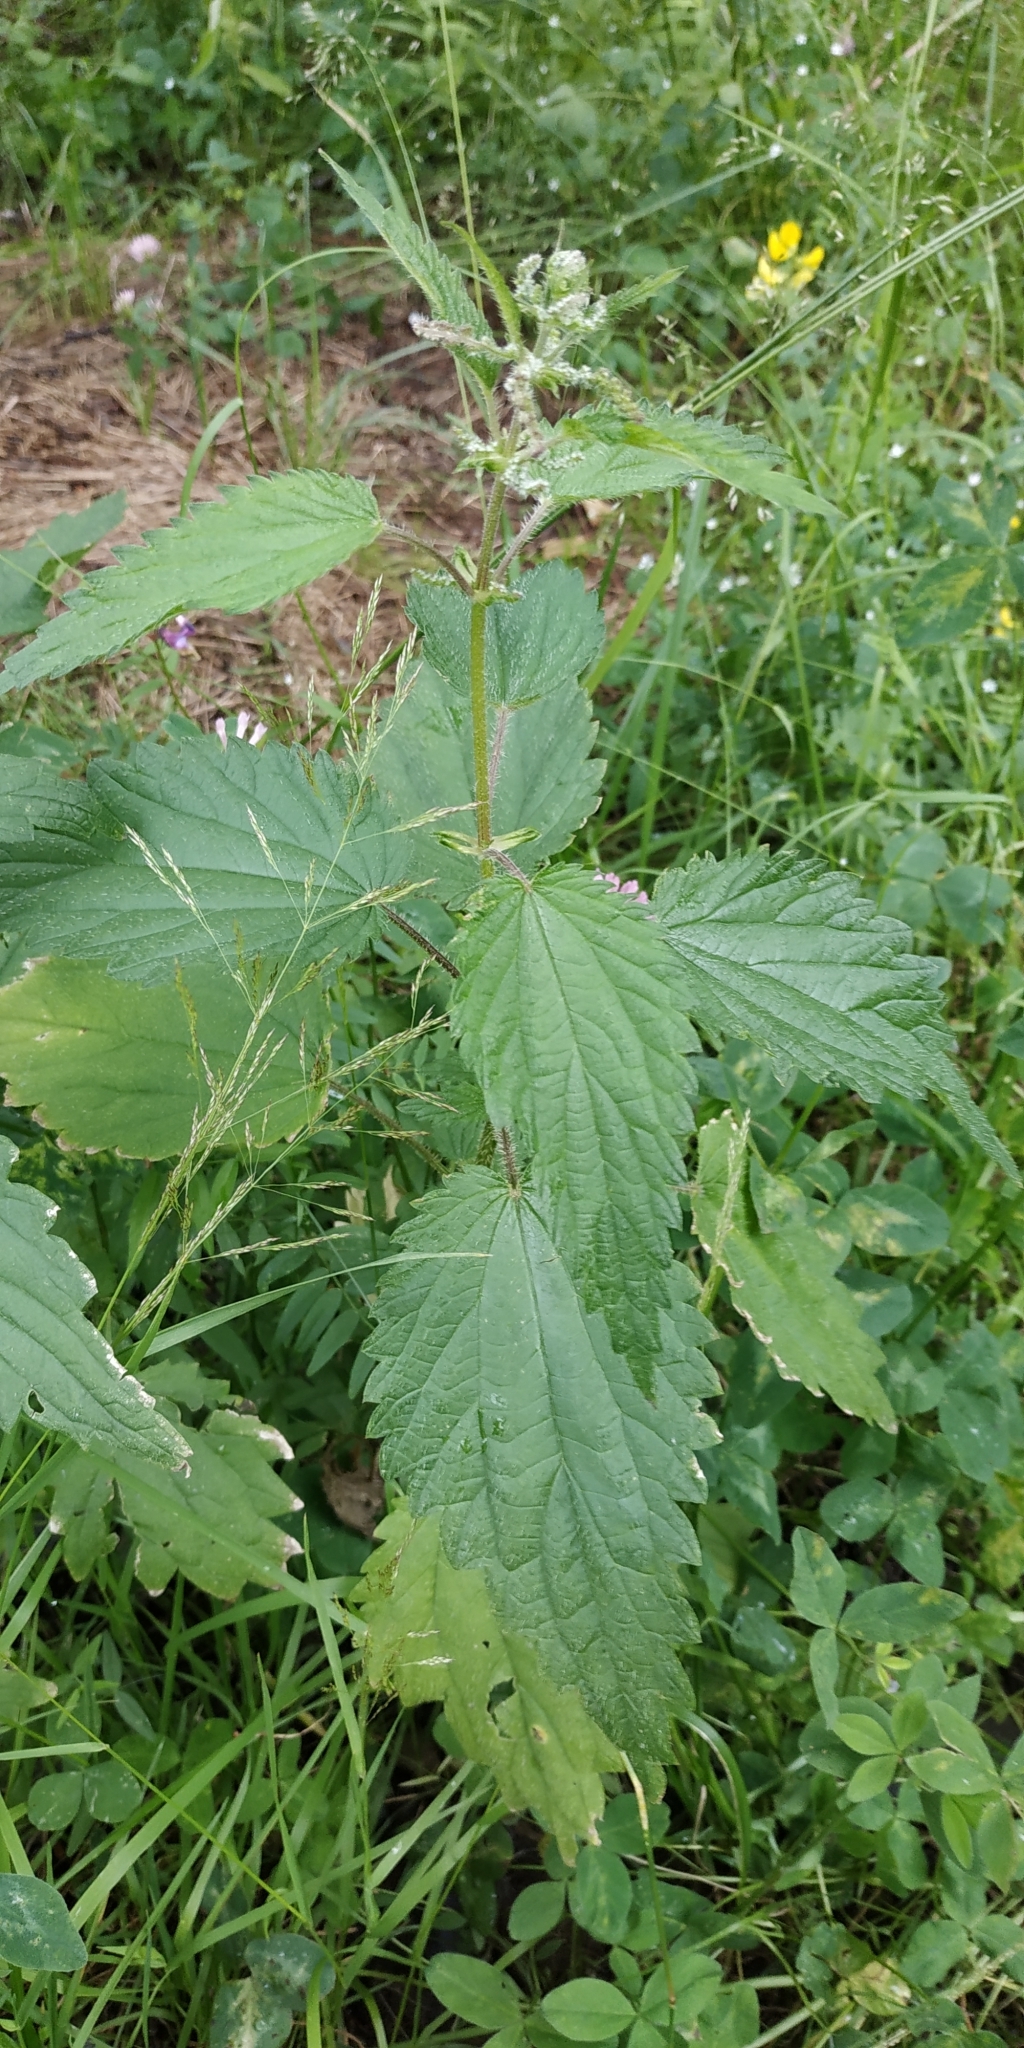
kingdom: Plantae
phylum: Tracheophyta
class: Magnoliopsida
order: Rosales
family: Urticaceae
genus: Urtica
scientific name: Urtica dioica
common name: Common nettle
